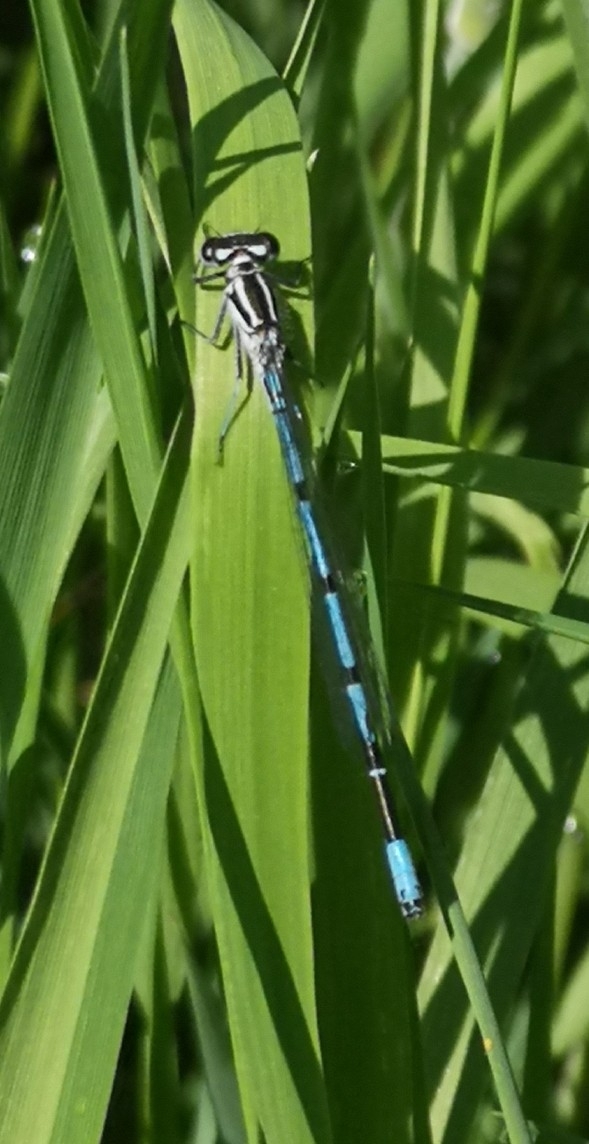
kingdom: Animalia
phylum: Arthropoda
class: Insecta
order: Odonata
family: Coenagrionidae
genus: Coenagrion
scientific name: Coenagrion puella
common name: Azure damselfly
